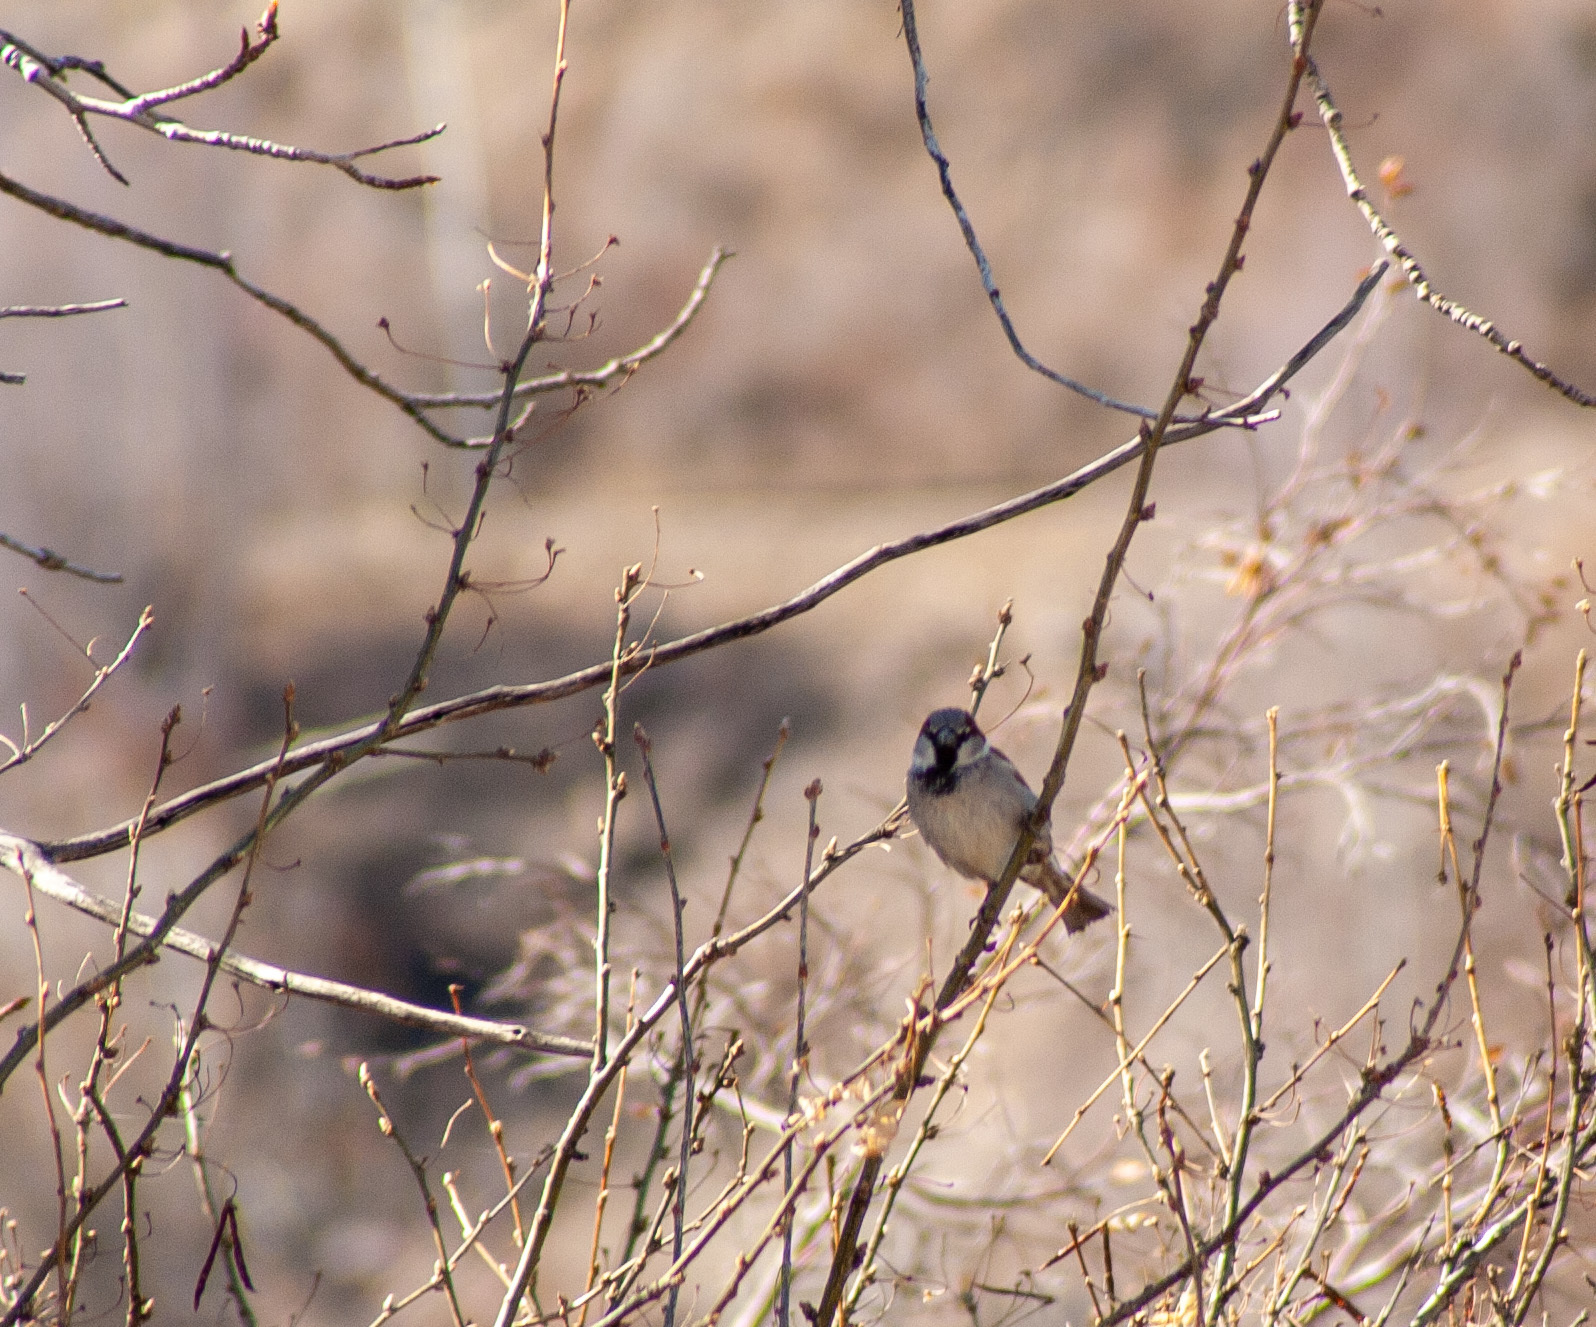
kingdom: Animalia
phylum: Chordata
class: Aves
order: Passeriformes
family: Passeridae
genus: Passer
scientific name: Passer domesticus
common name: House sparrow
